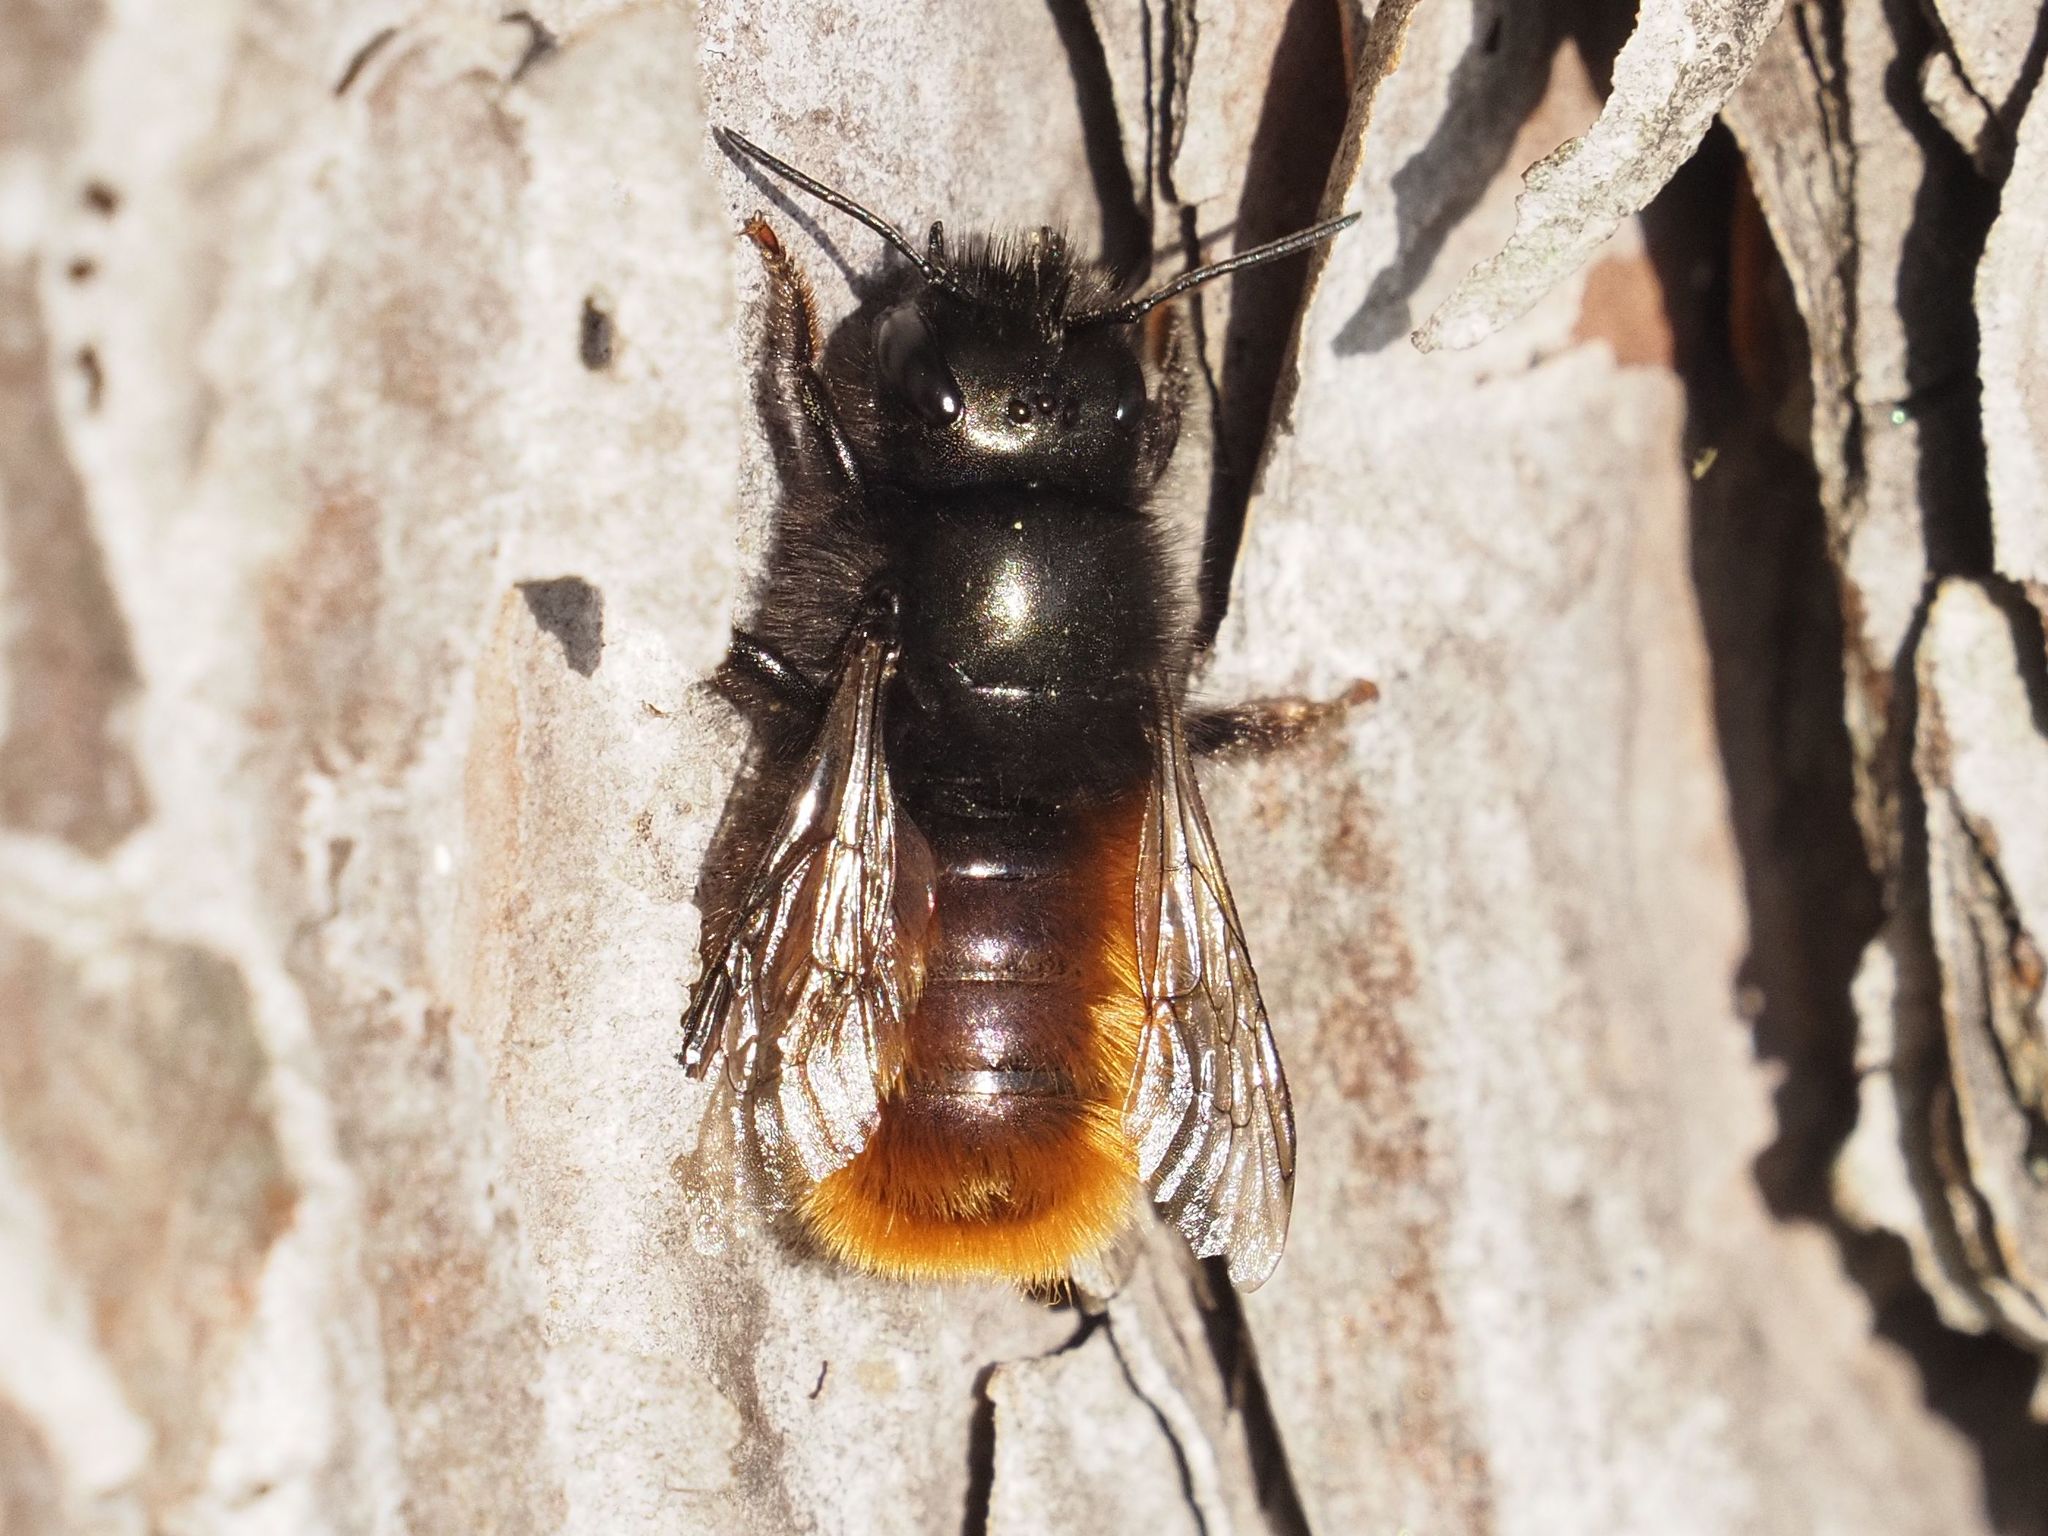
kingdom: Animalia
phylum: Arthropoda
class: Insecta
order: Hymenoptera
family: Megachilidae
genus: Osmia
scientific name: Osmia cornuta
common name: Mason bee
